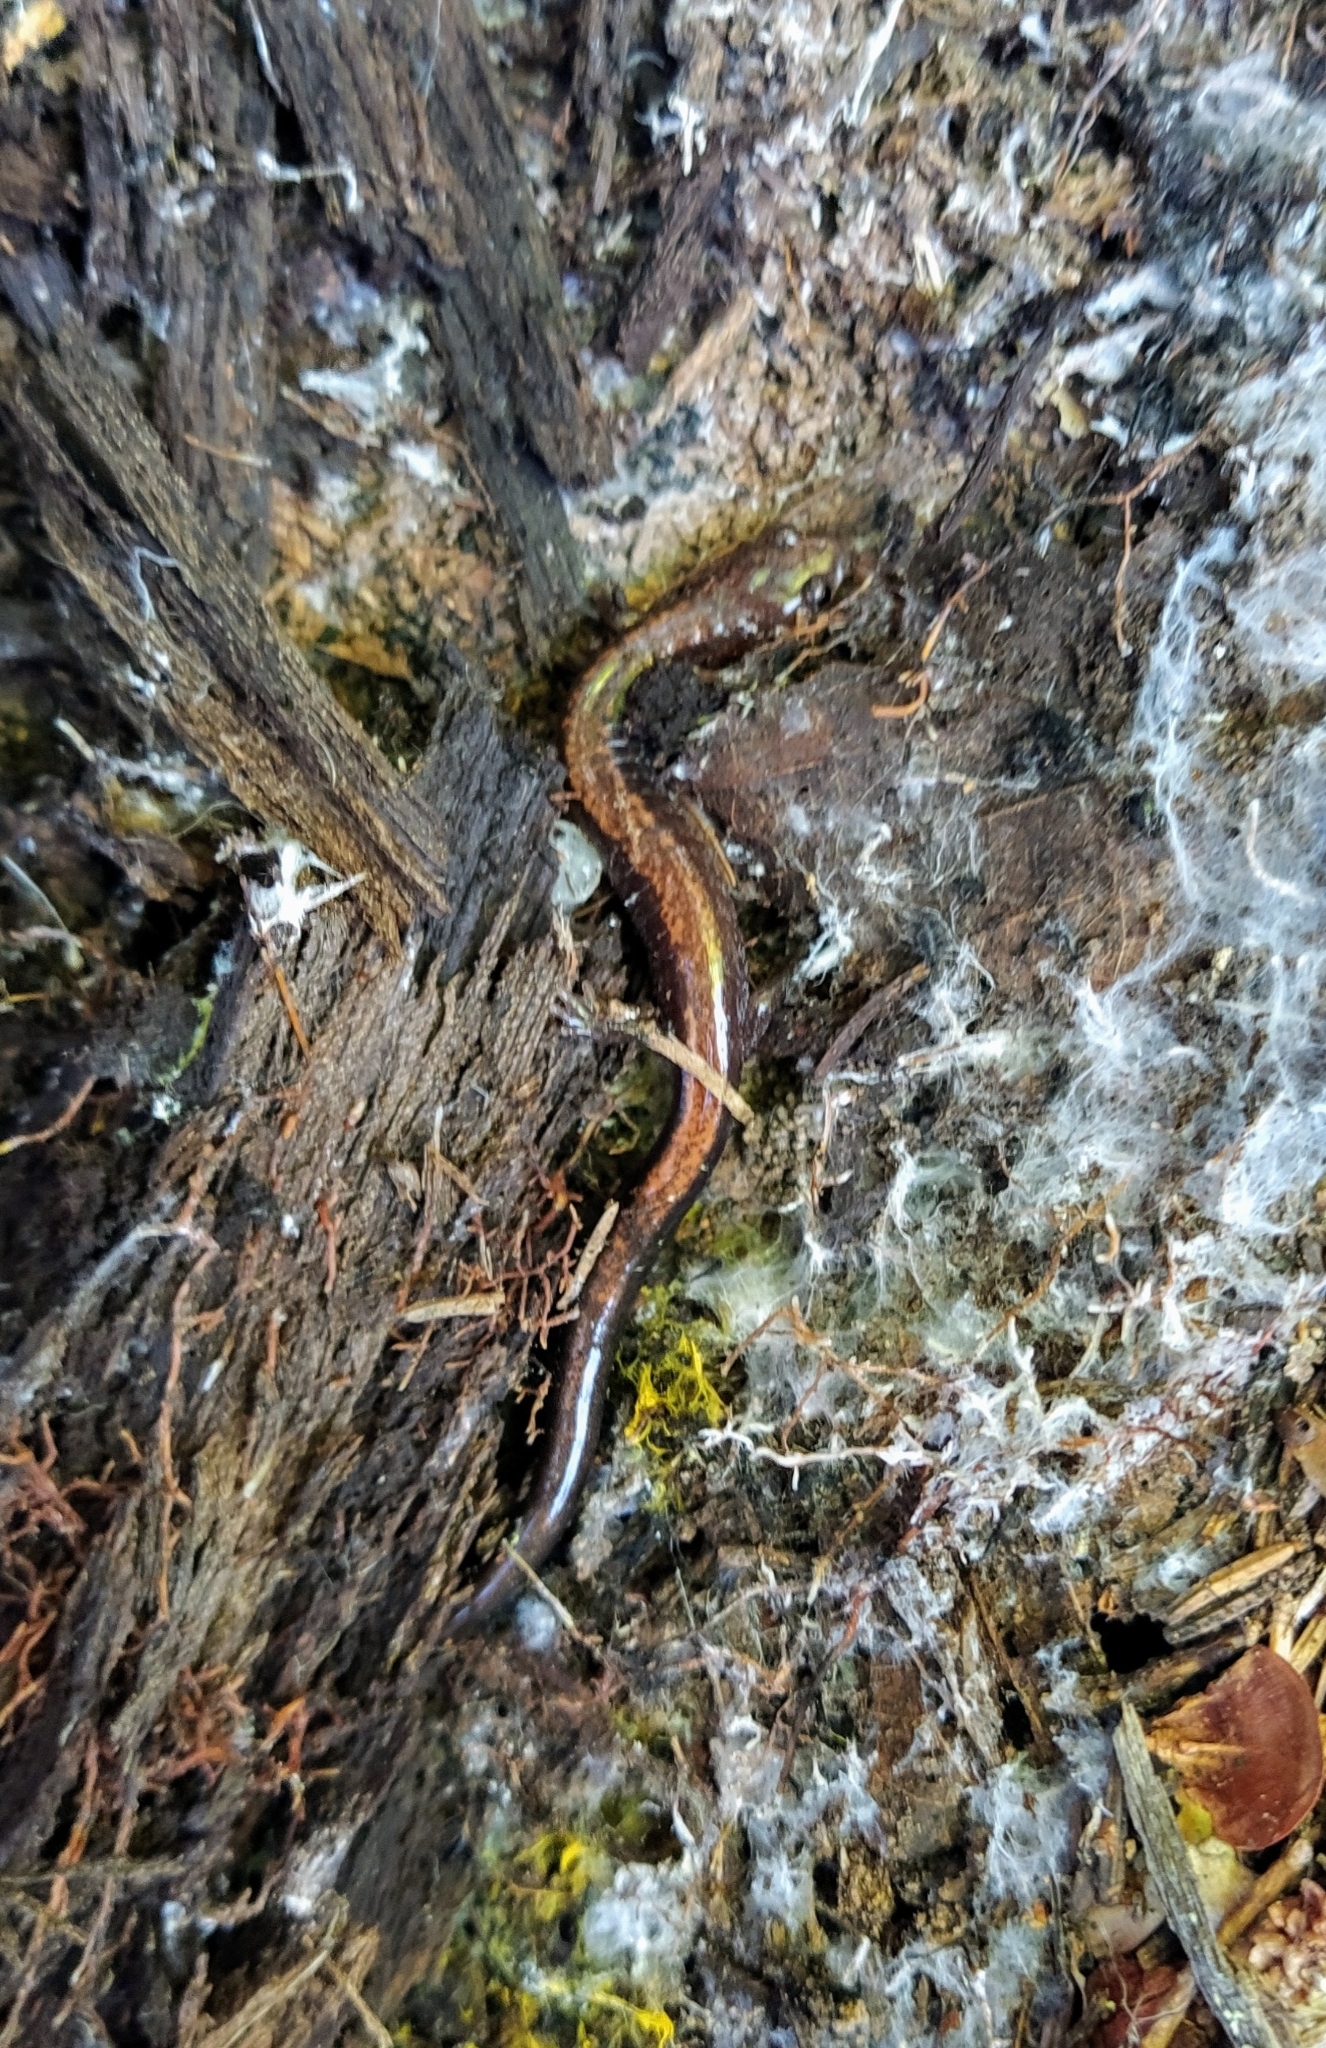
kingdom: Animalia
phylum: Chordata
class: Amphibia
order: Caudata
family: Plethodontidae
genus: Plethodon
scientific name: Plethodon cinereus
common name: Redback salamander
